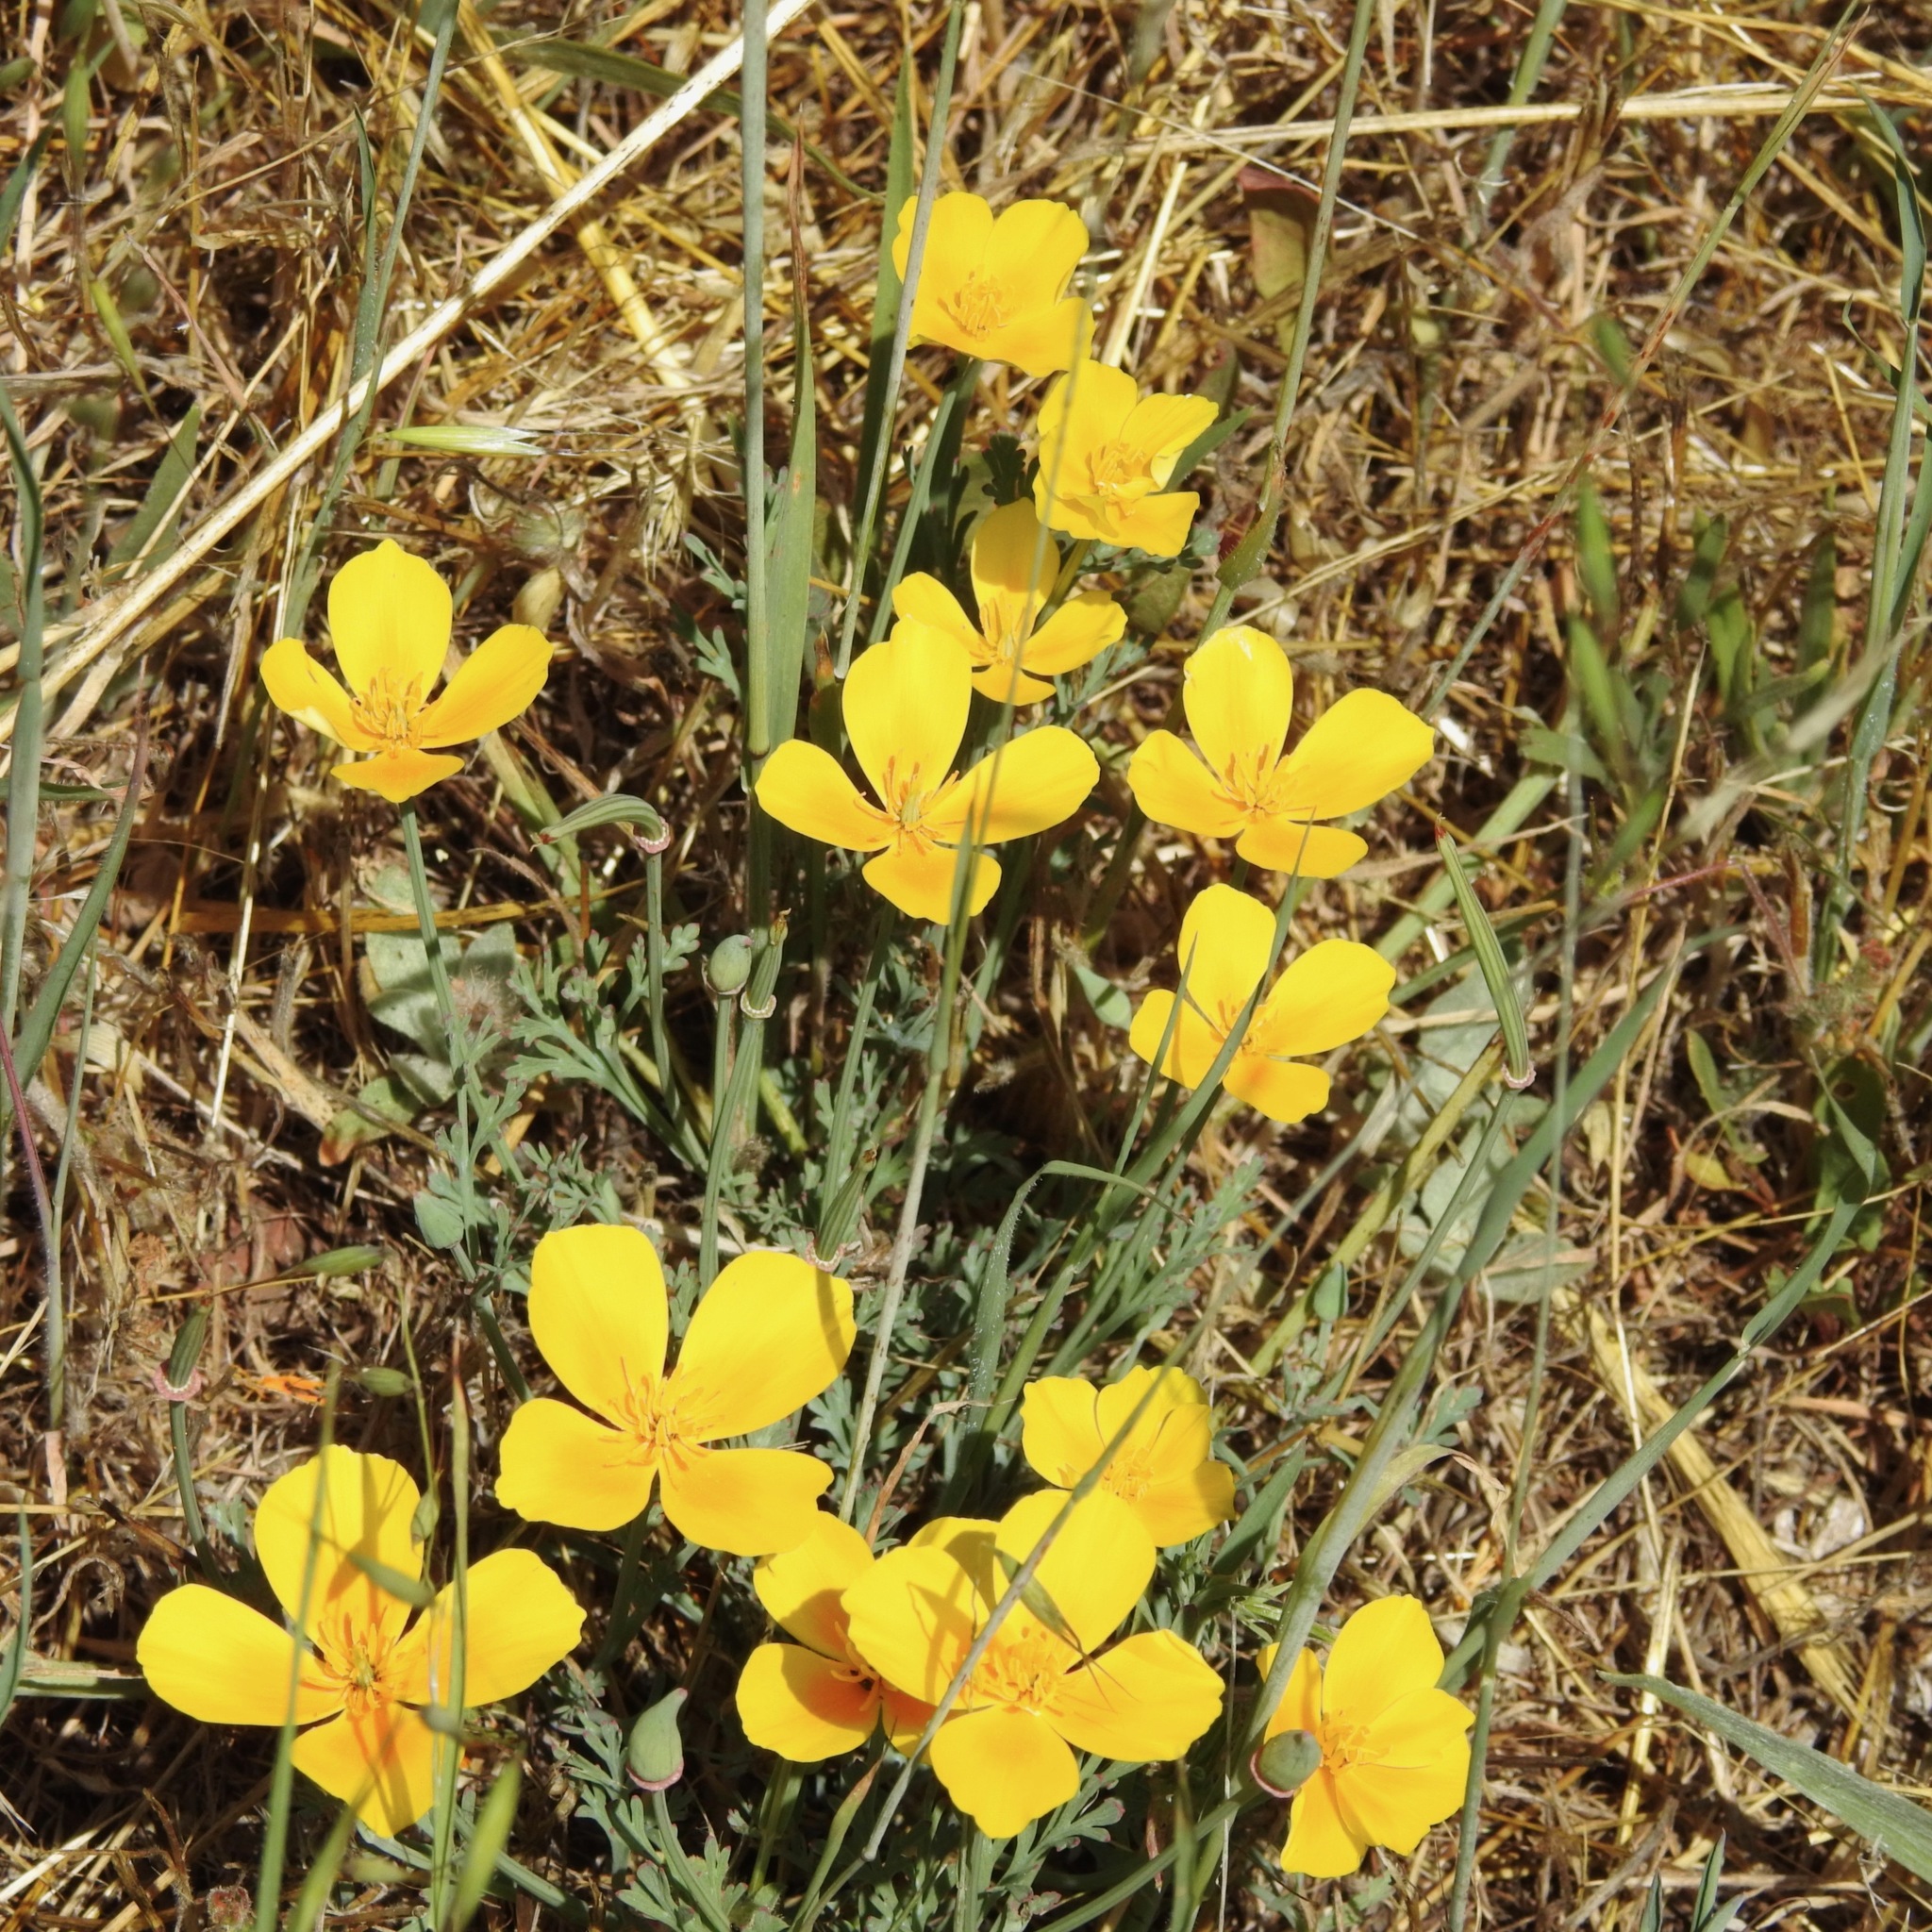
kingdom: Plantae
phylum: Tracheophyta
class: Magnoliopsida
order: Ranunculales
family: Papaveraceae
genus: Eschscholzia
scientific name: Eschscholzia californica
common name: California poppy
